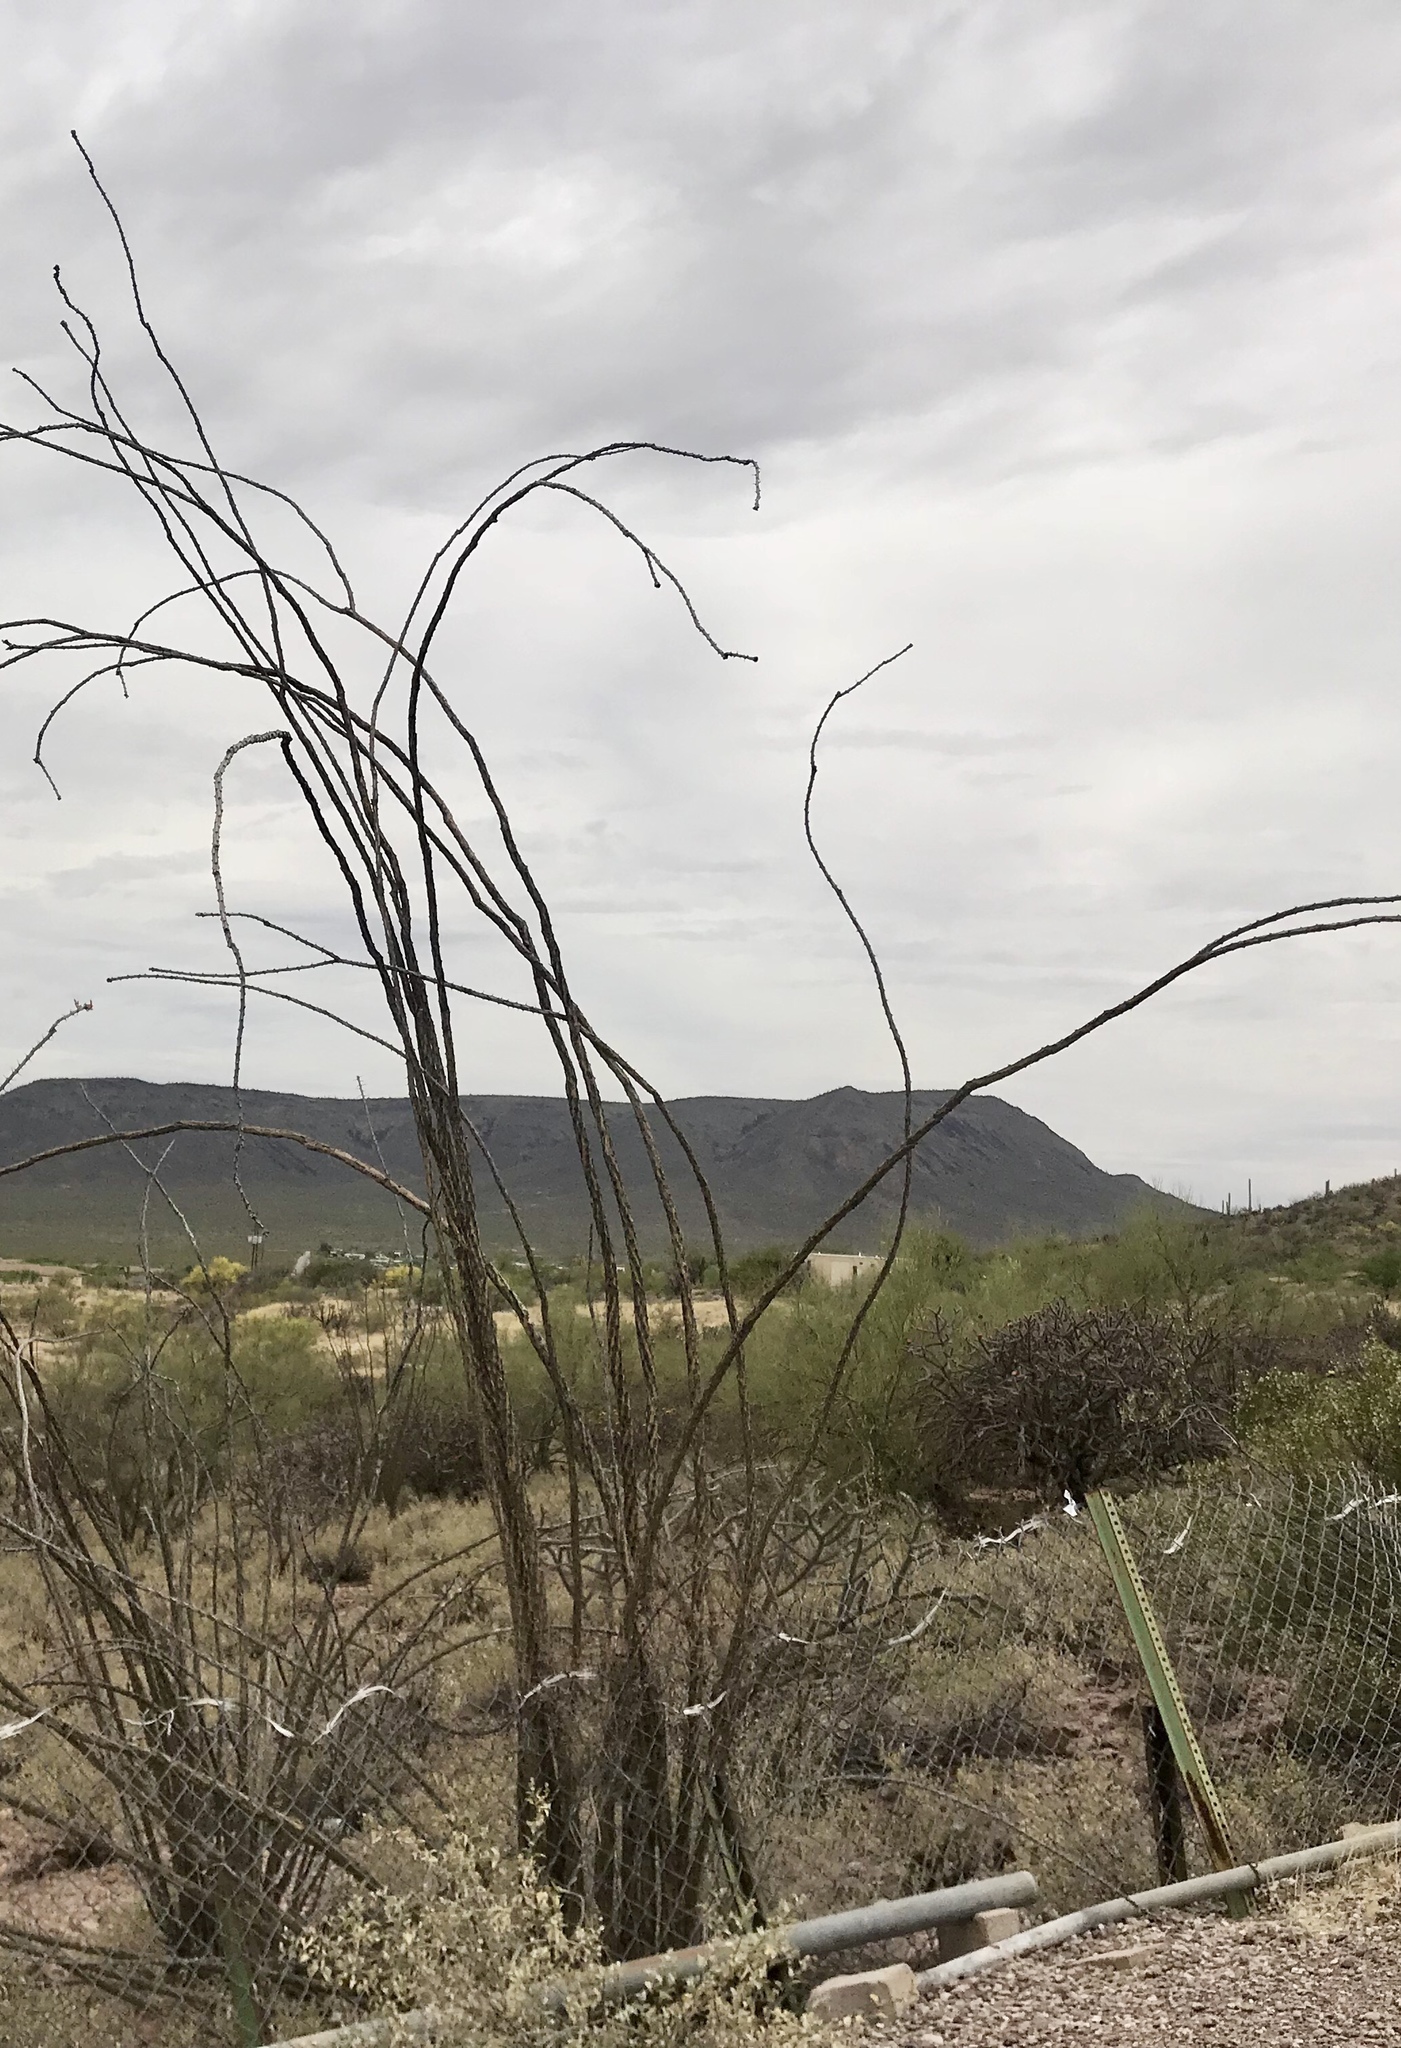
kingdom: Plantae
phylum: Tracheophyta
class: Magnoliopsida
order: Ericales
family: Fouquieriaceae
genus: Fouquieria
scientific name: Fouquieria splendens
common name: Vine-cactus
